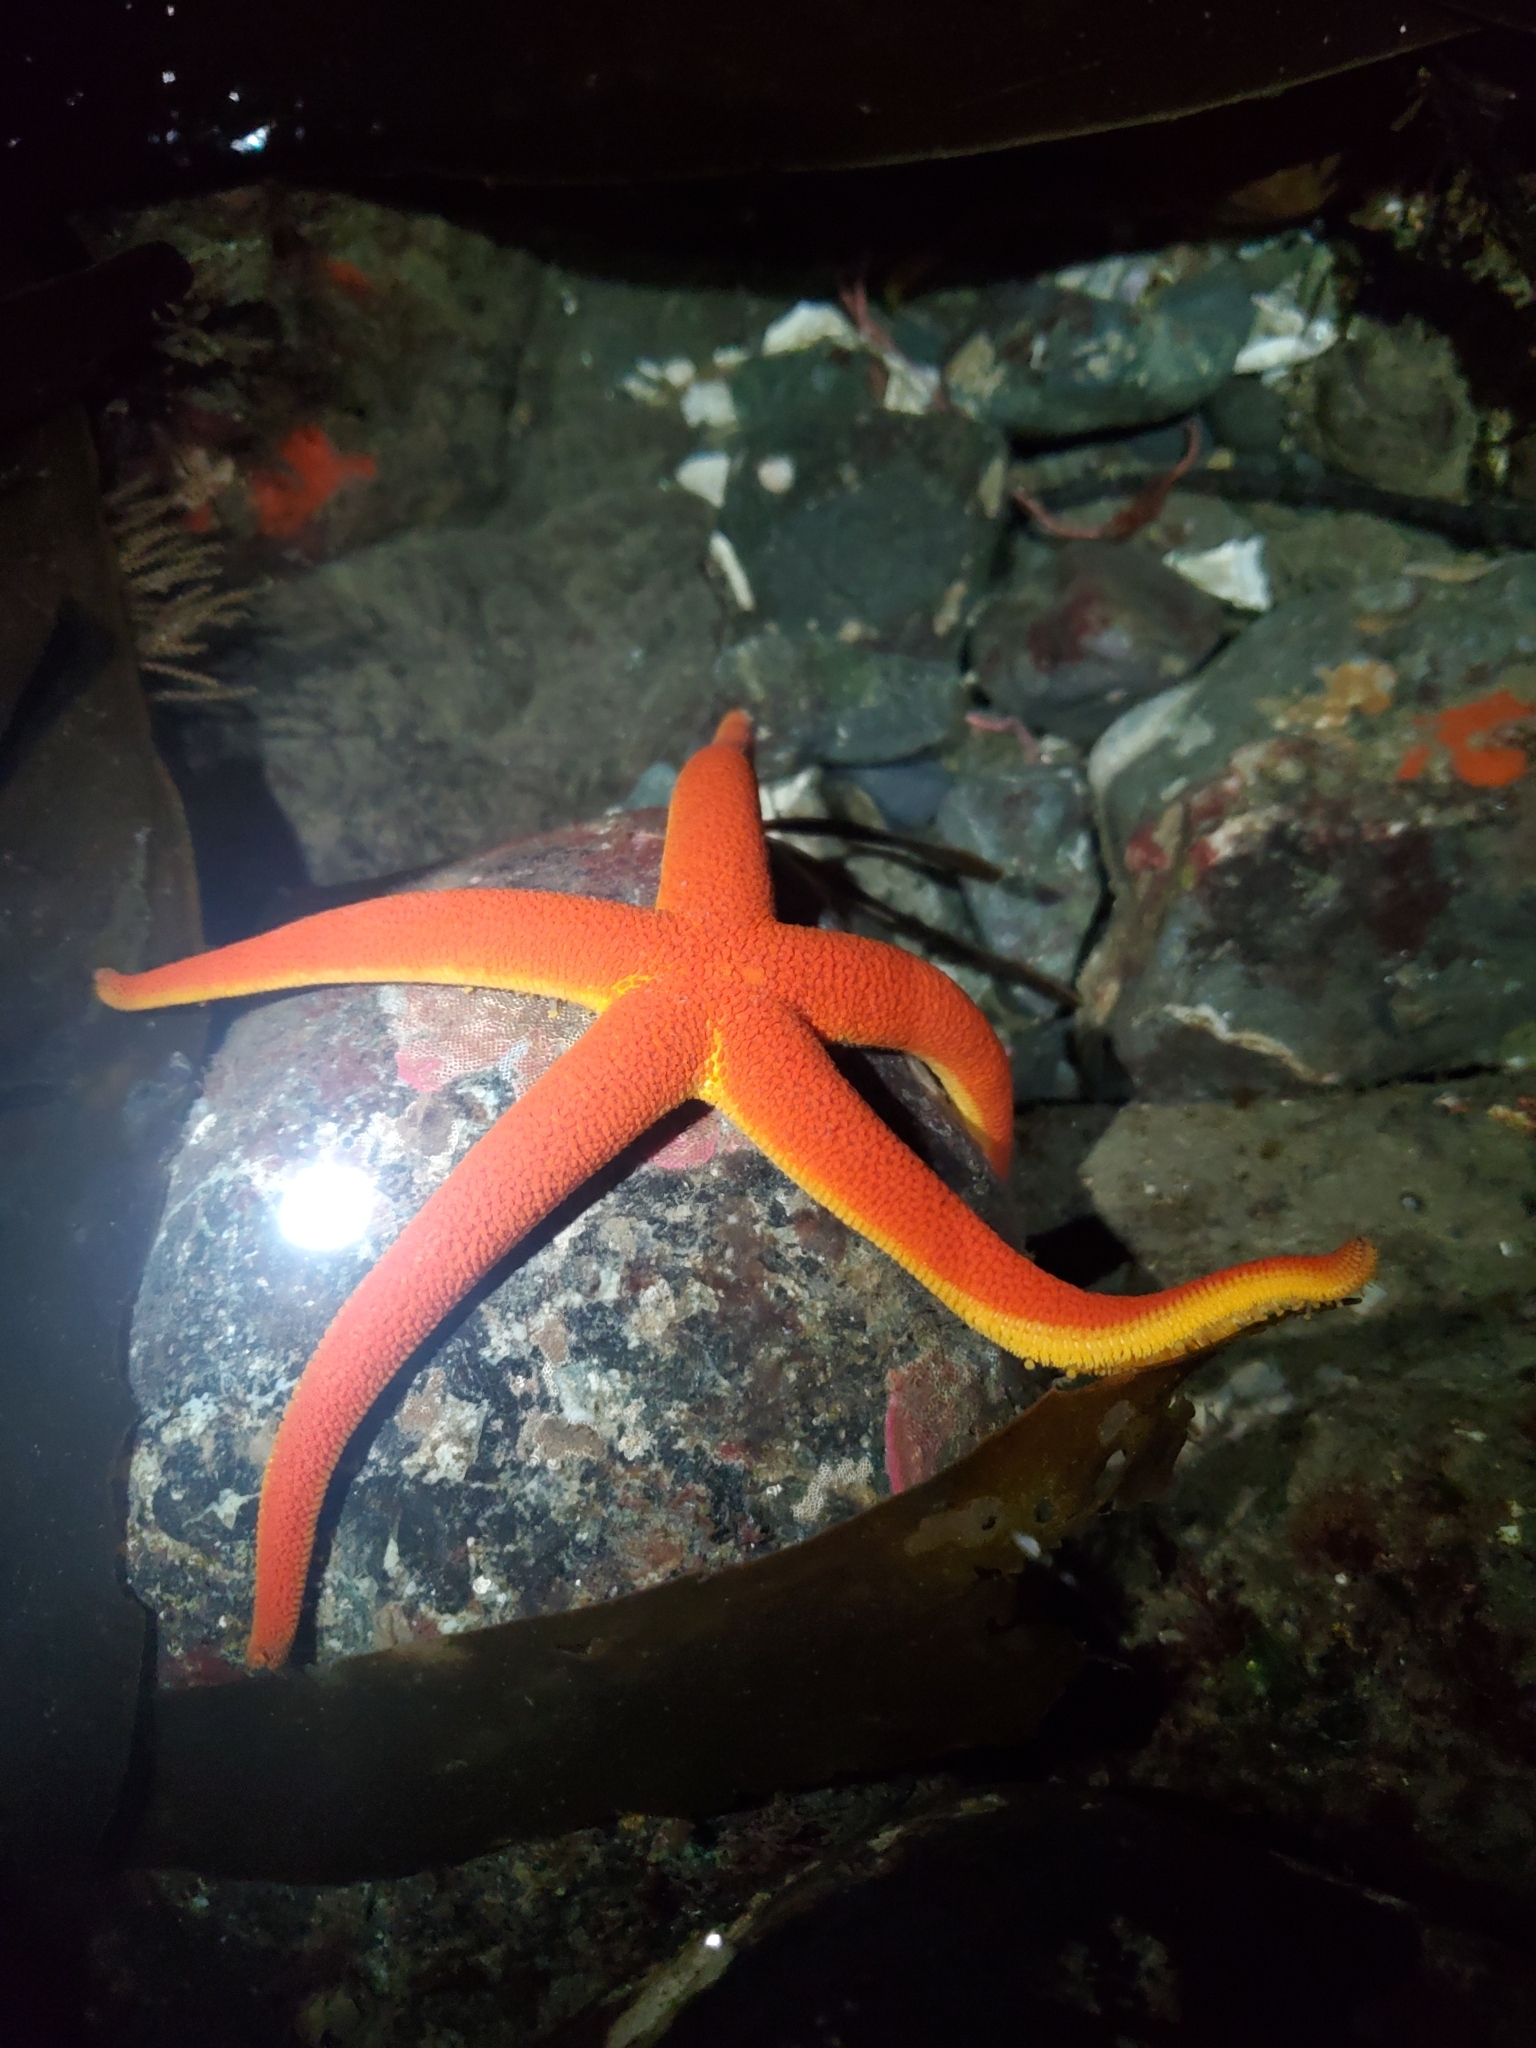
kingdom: Animalia
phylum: Echinodermata
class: Asteroidea
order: Spinulosida
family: Echinasteridae
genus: Henricia
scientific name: Henricia leviuscula
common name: Pacific blood star
